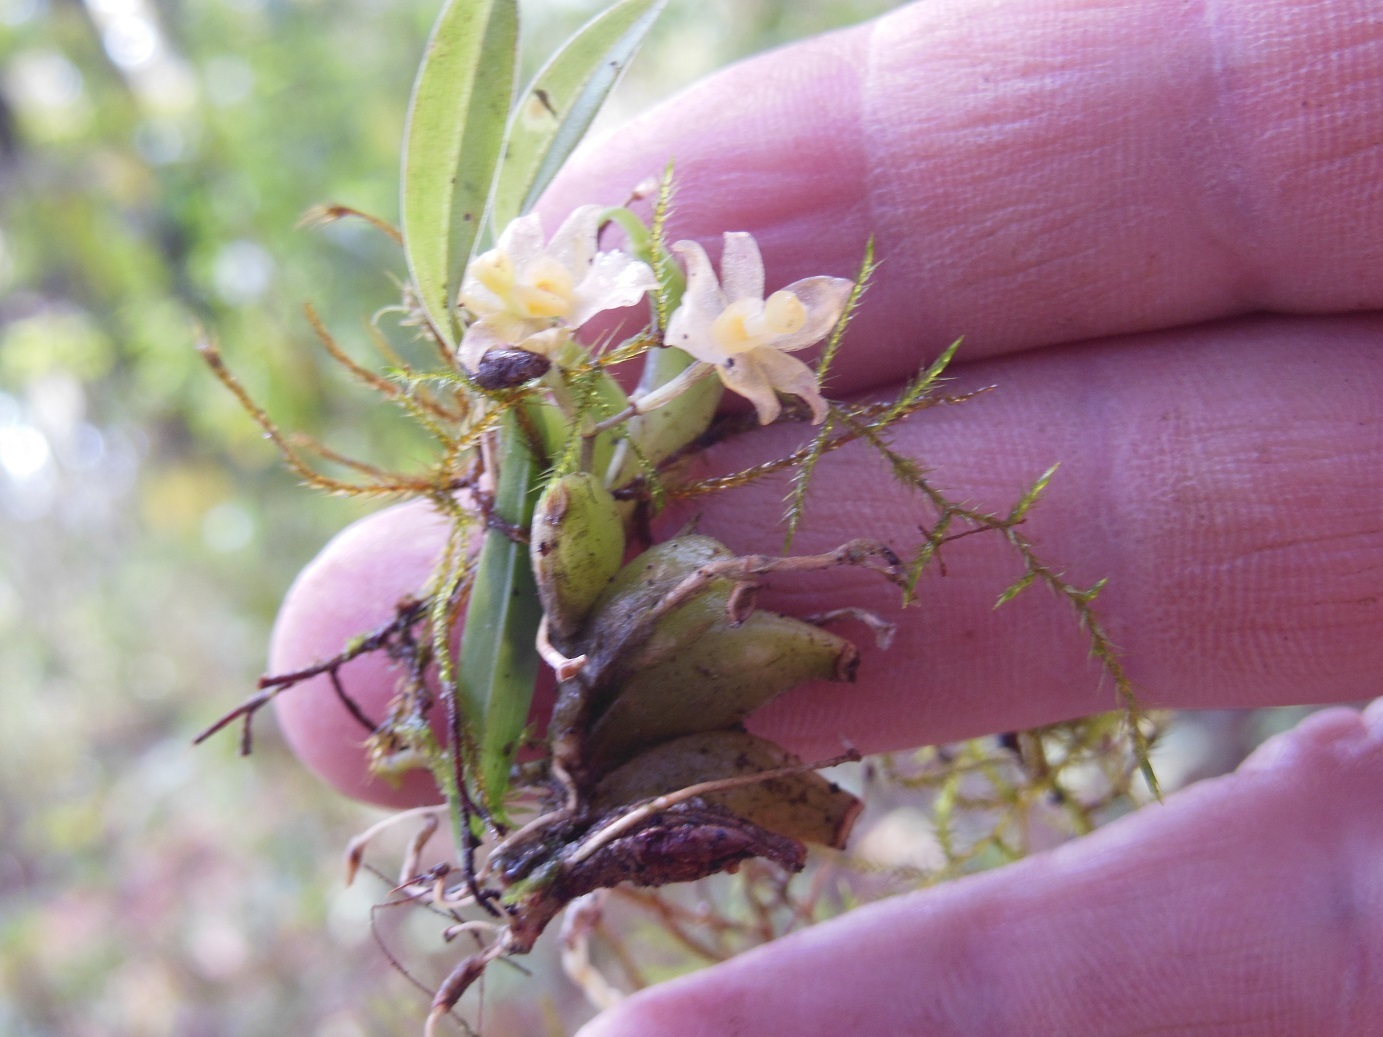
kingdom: Plantae
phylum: Tracheophyta
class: Liliopsida
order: Asparagales
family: Orchidaceae
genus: Rhynchostele
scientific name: Rhynchostele pygmaea
